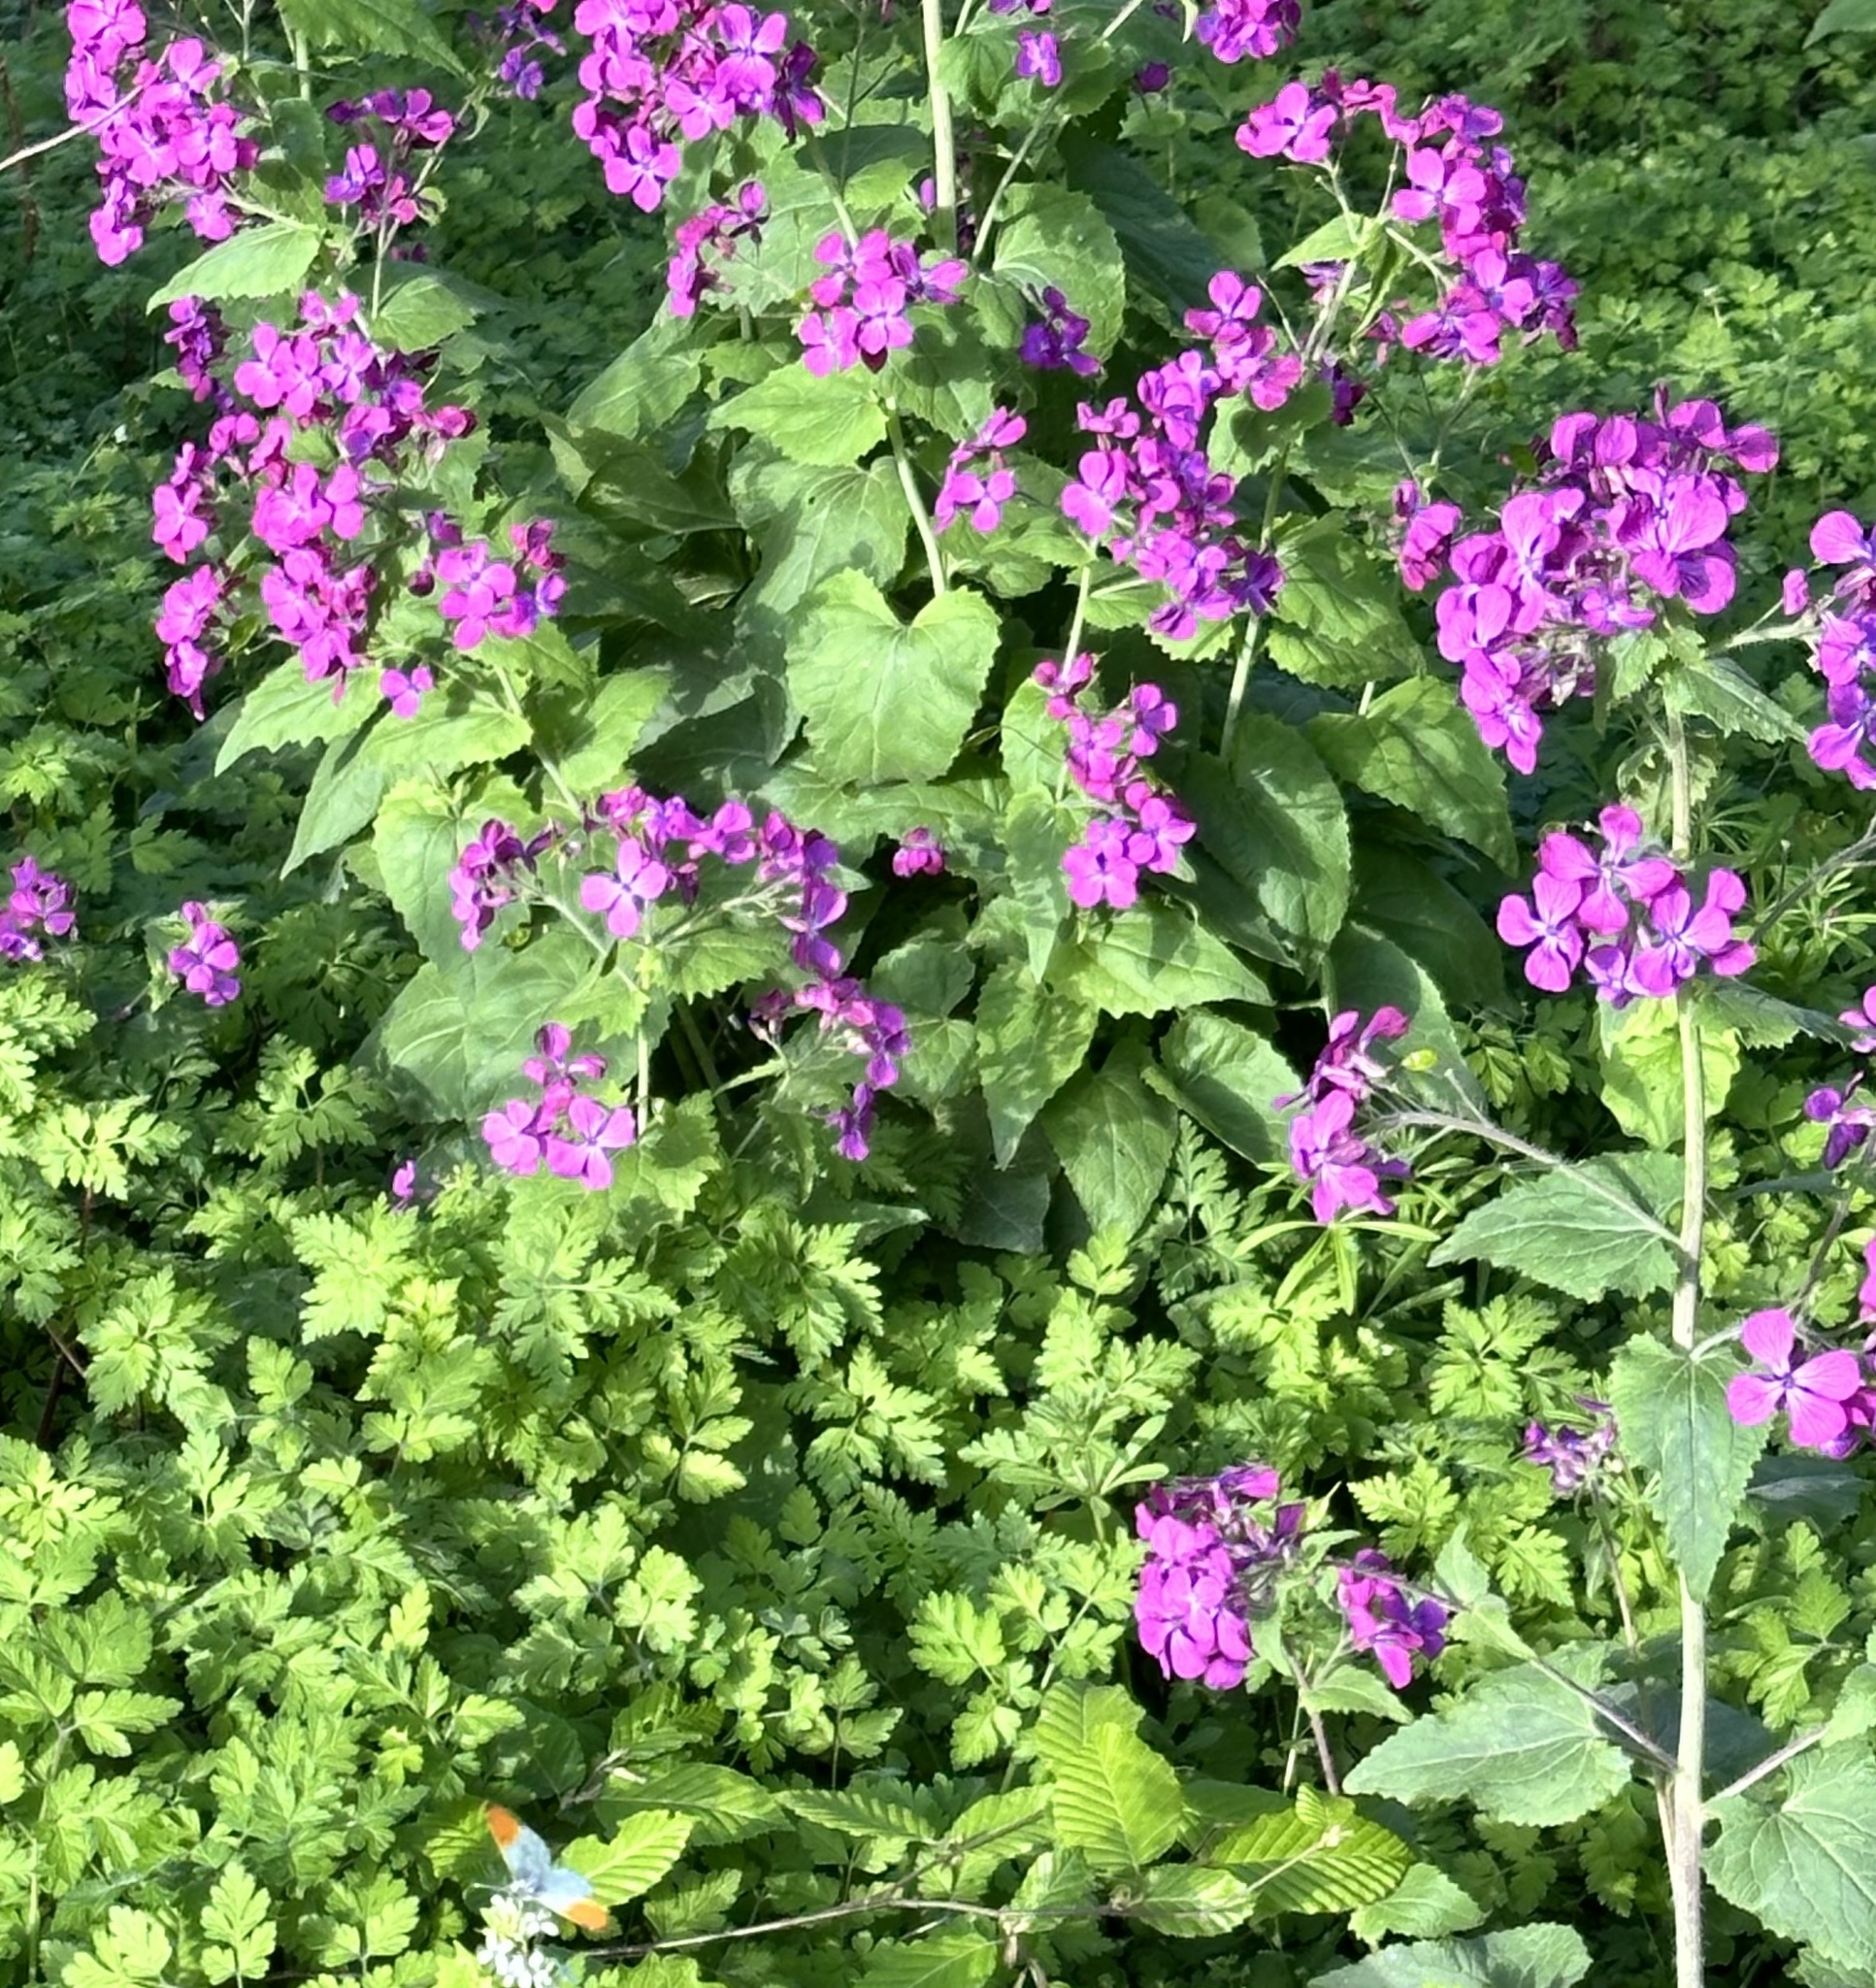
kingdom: Plantae
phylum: Tracheophyta
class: Magnoliopsida
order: Brassicales
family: Brassicaceae
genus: Lunaria
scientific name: Lunaria annua
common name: Honesty
